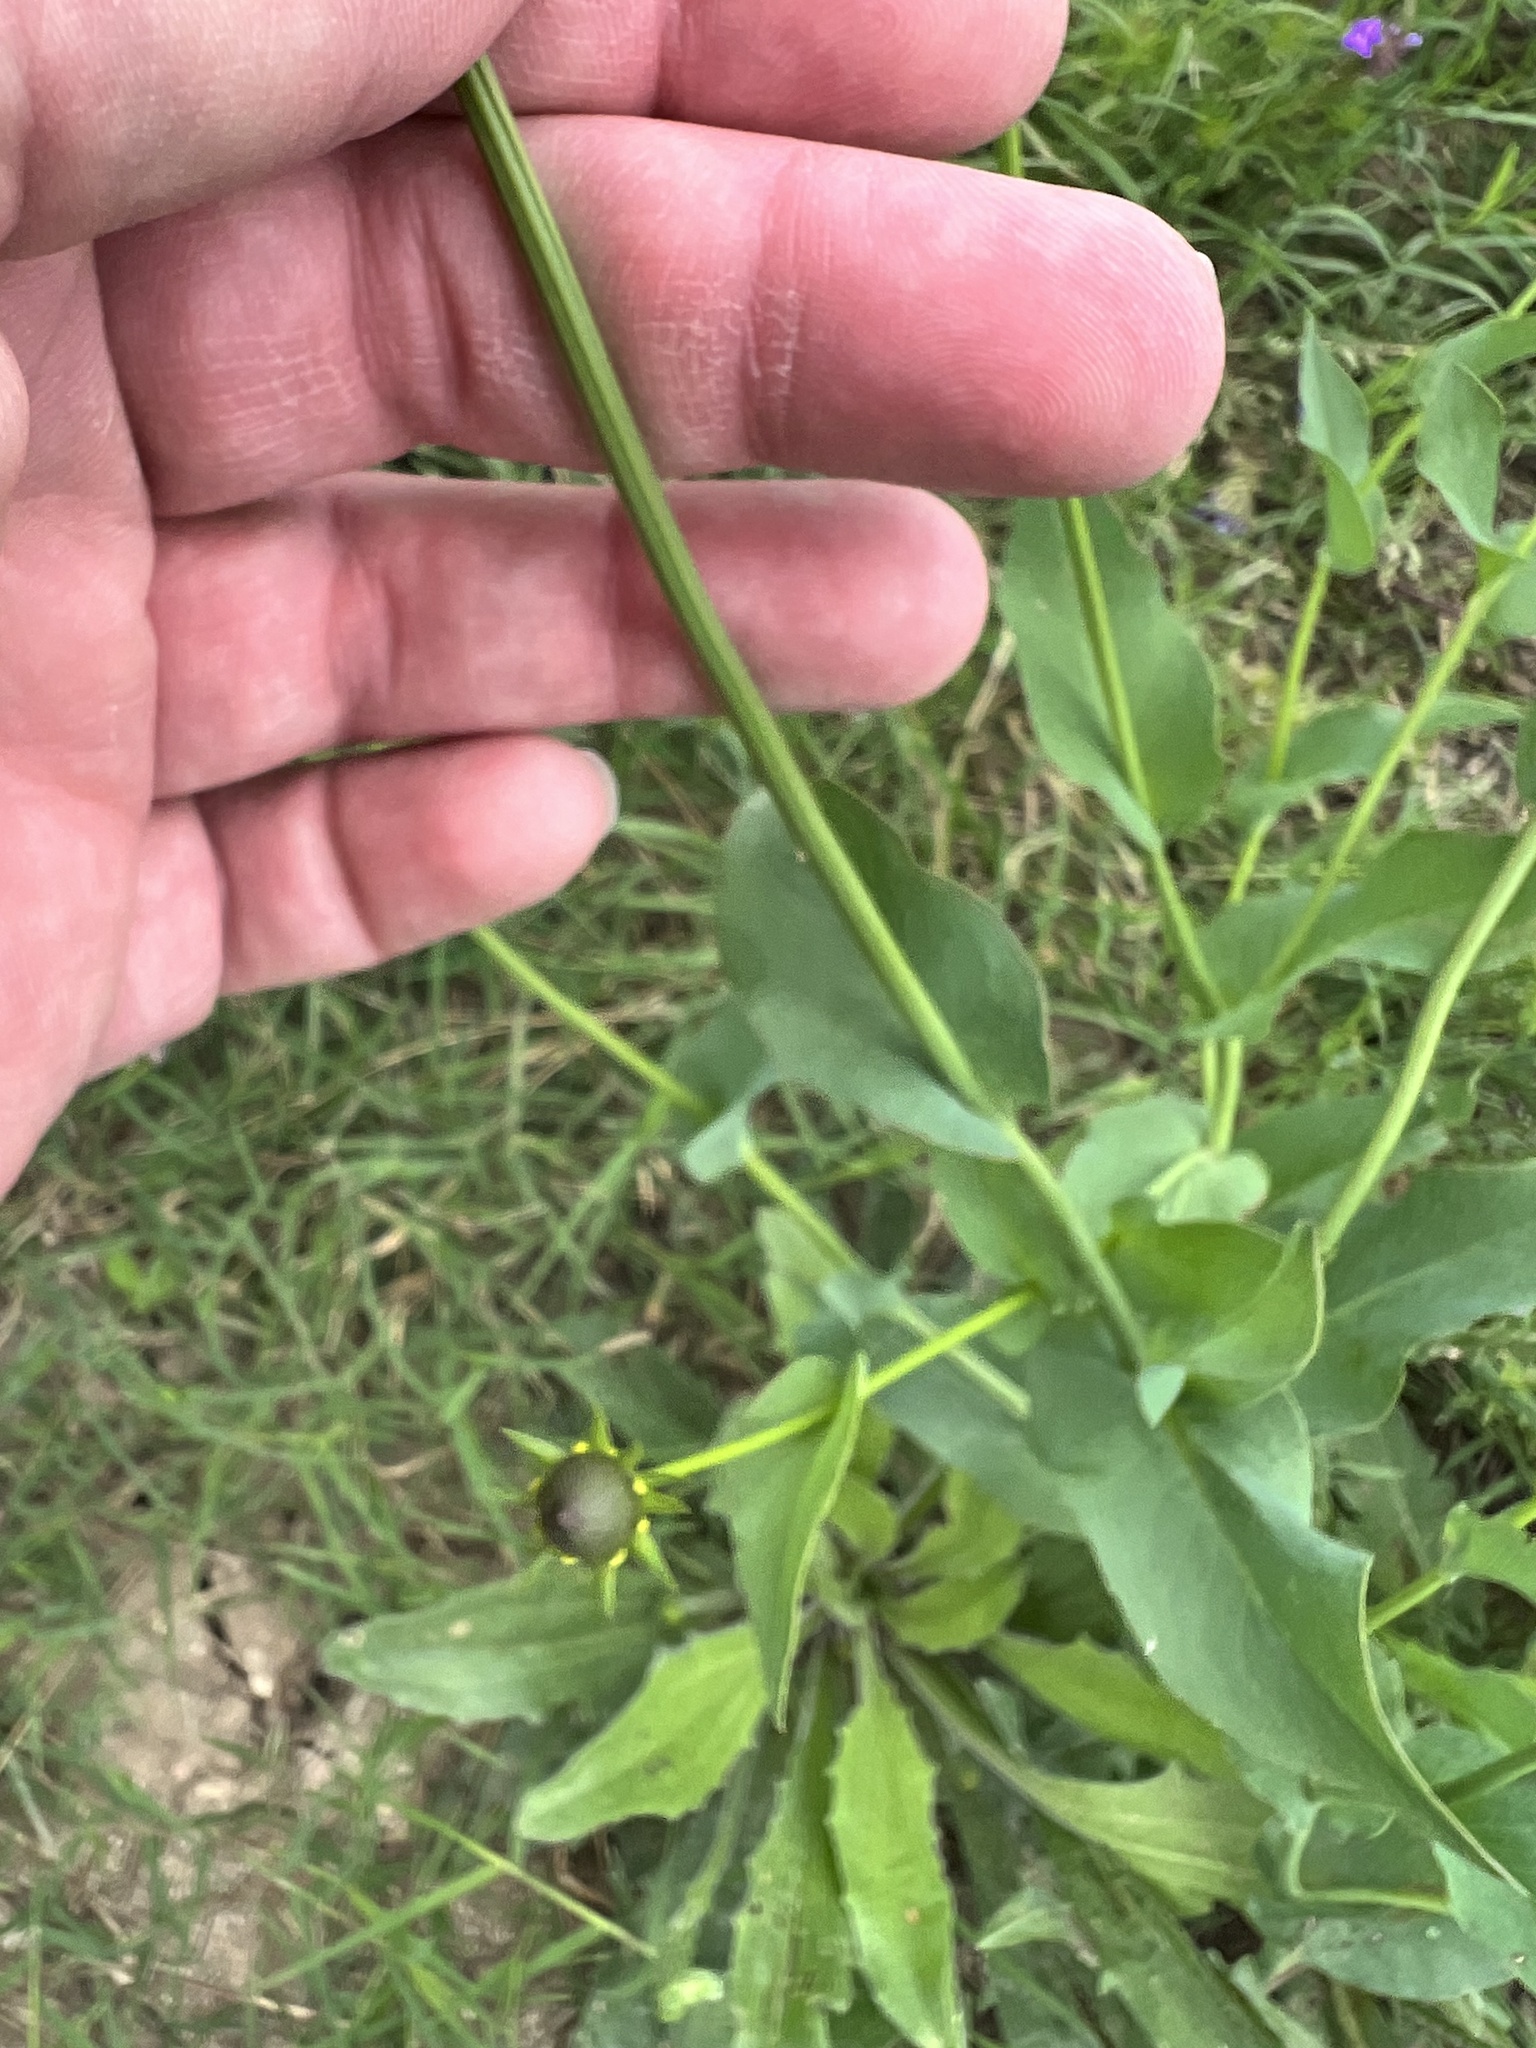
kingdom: Plantae
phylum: Tracheophyta
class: Magnoliopsida
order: Asterales
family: Asteraceae
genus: Rudbeckia
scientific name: Rudbeckia amplexicaulis
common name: Clasping-leaf coneflower
